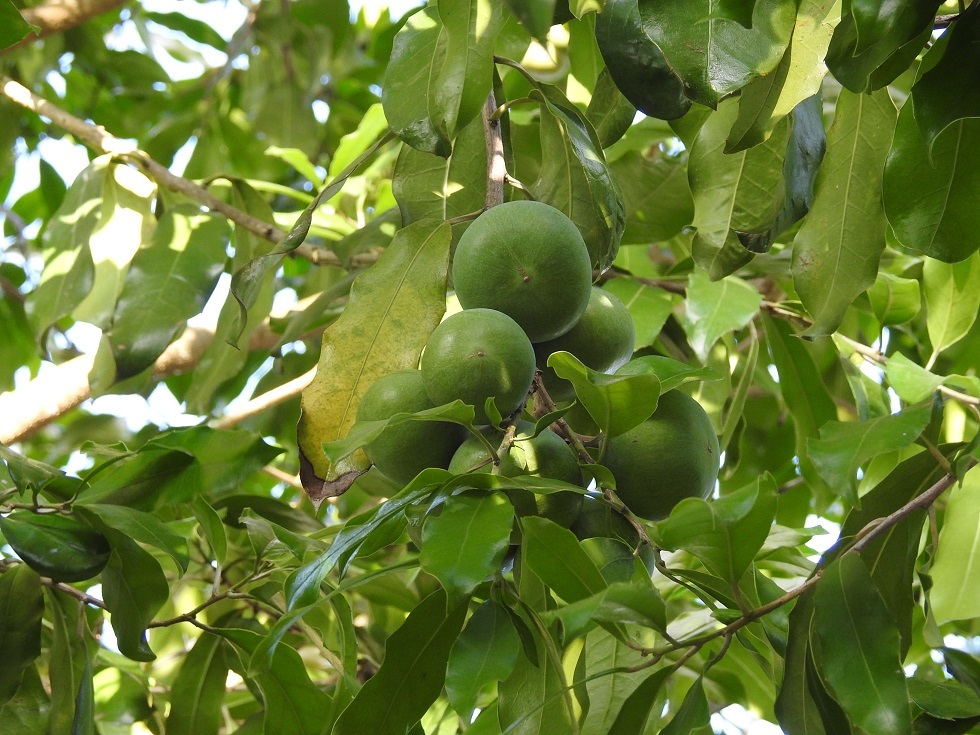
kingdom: Plantae
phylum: Tracheophyta
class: Magnoliopsida
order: Malpighiales
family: Salicaceae
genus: Olmediella
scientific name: Olmediella betschleriana
